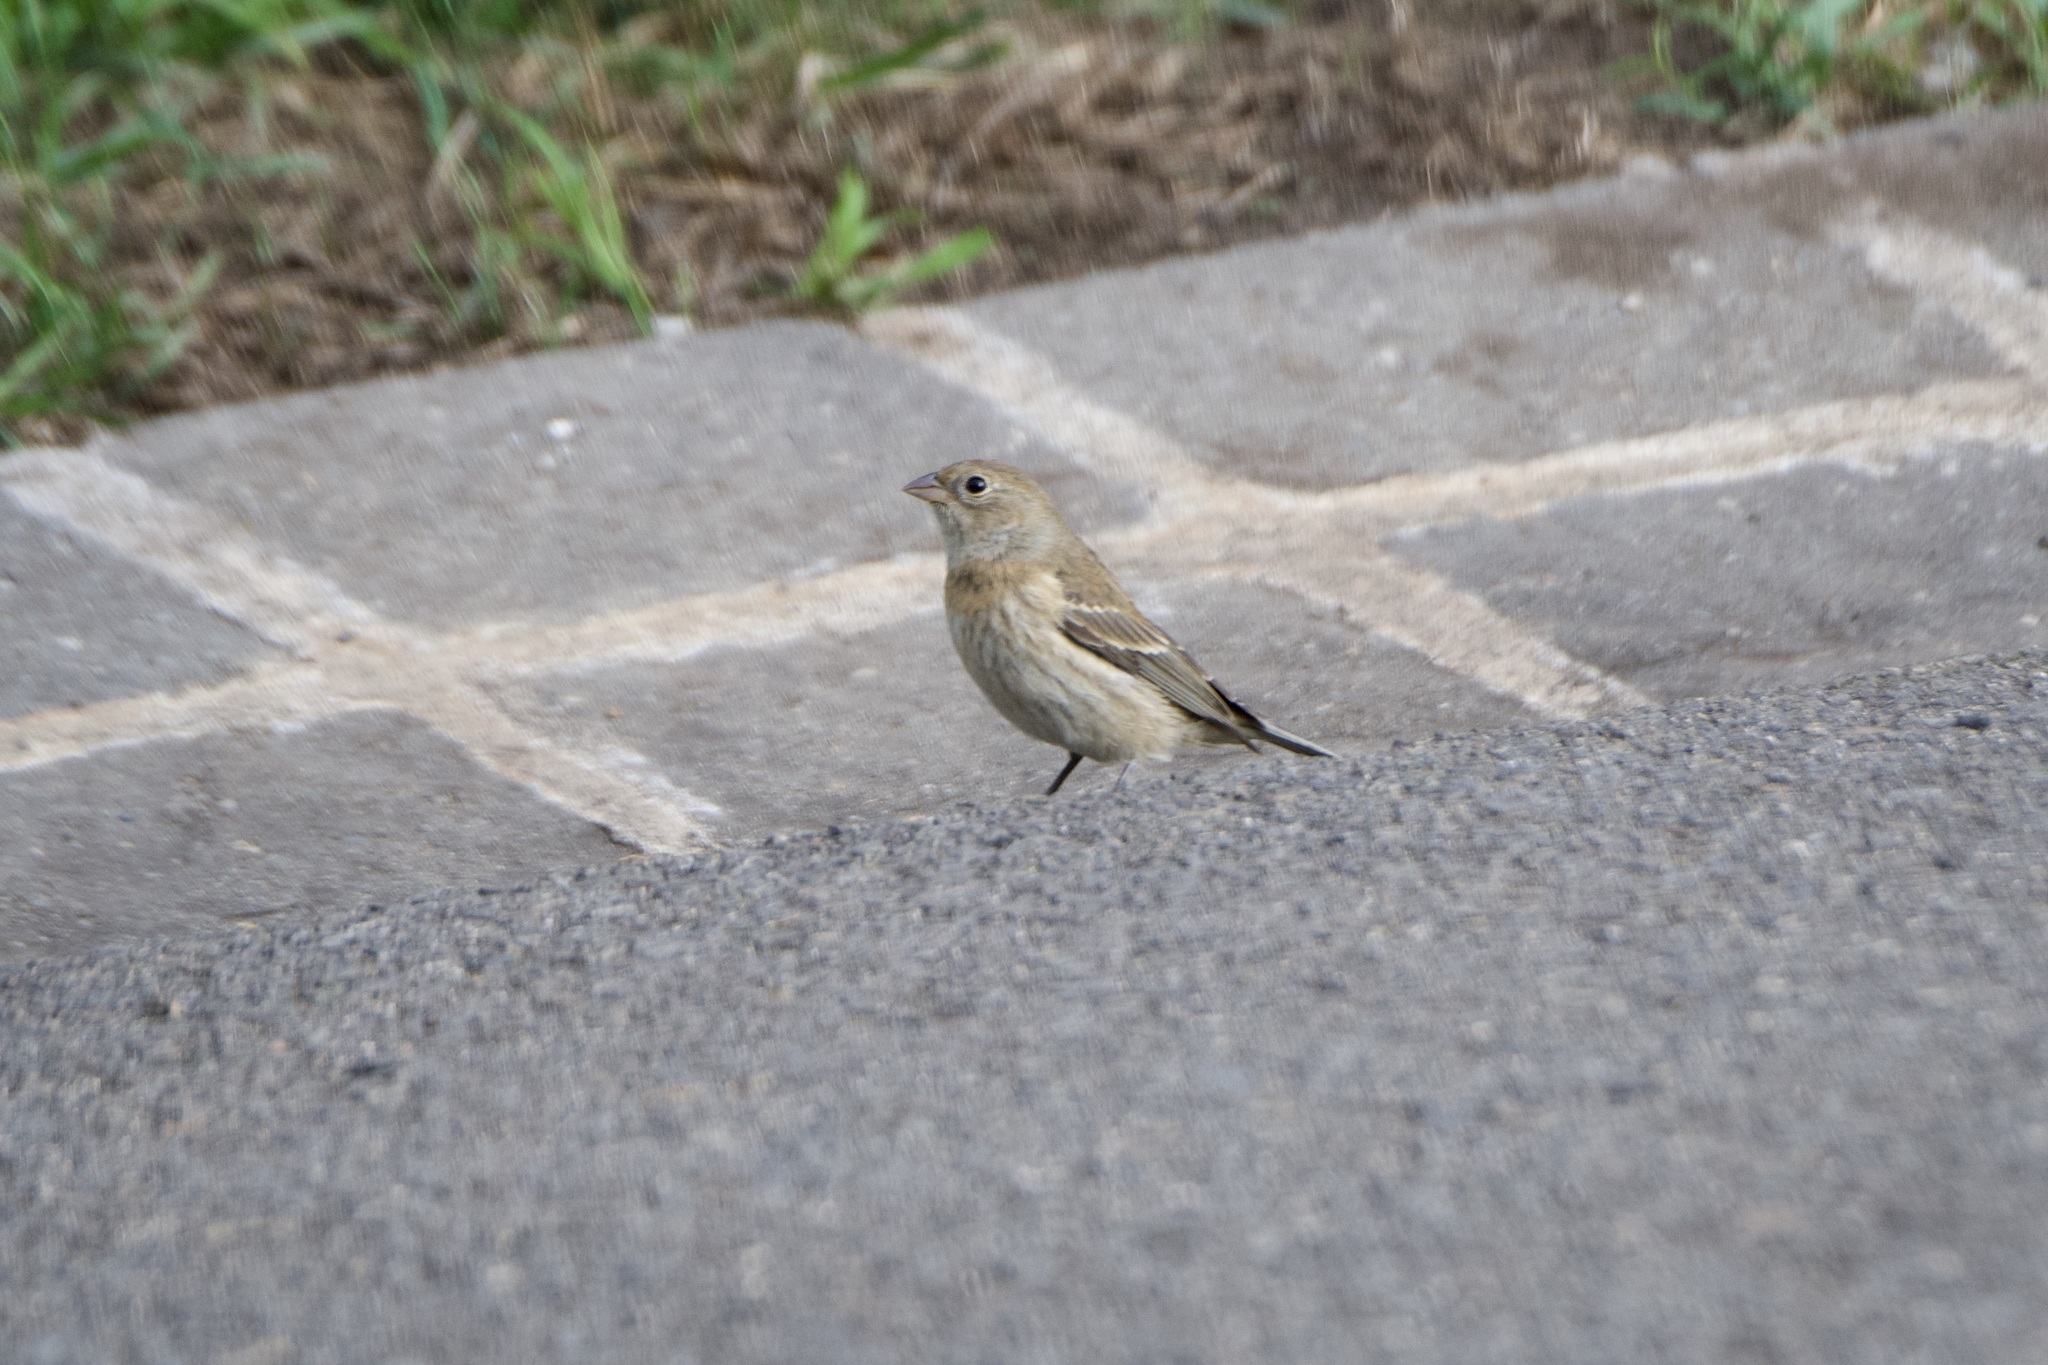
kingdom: Animalia
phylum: Chordata
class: Aves
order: Passeriformes
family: Cardinalidae
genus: Passerina
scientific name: Passerina amoena
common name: Lazuli bunting
